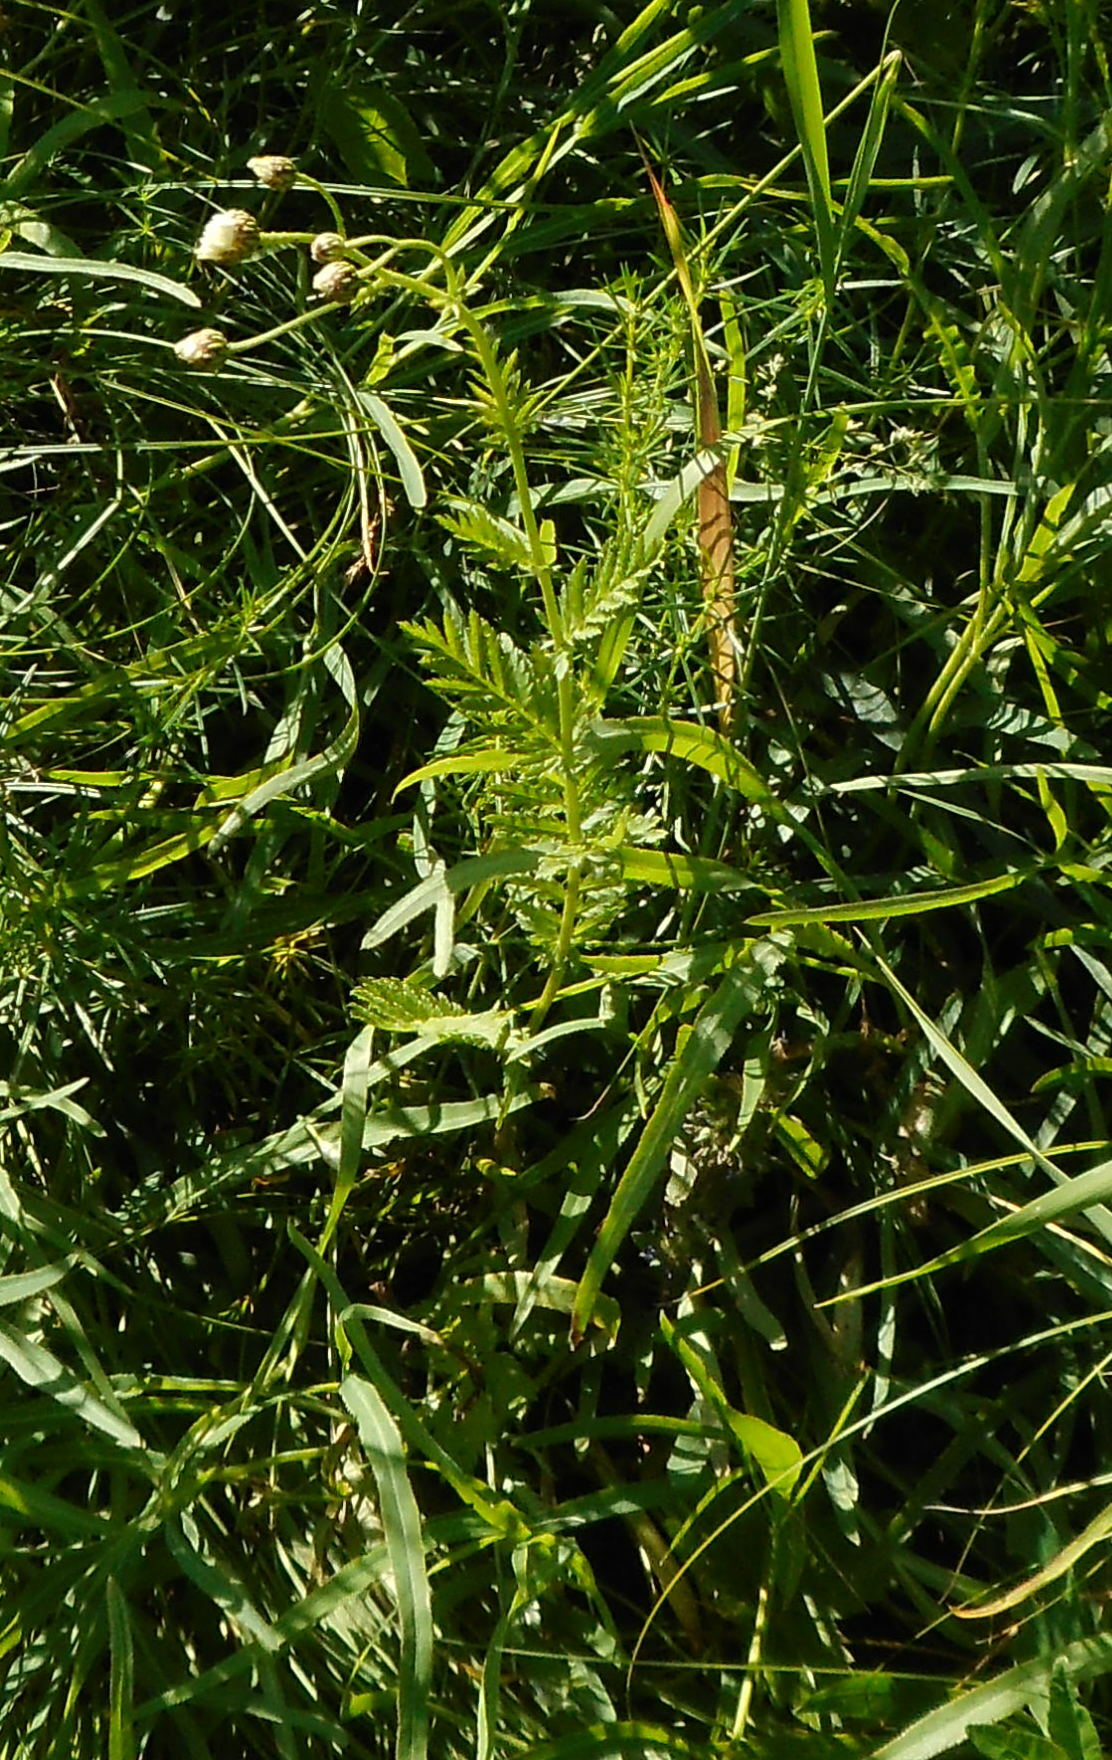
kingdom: Plantae
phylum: Tracheophyta
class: Magnoliopsida
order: Asterales
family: Asteraceae
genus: Tanacetum
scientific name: Tanacetum corymbosum
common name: Scentless feverfew
